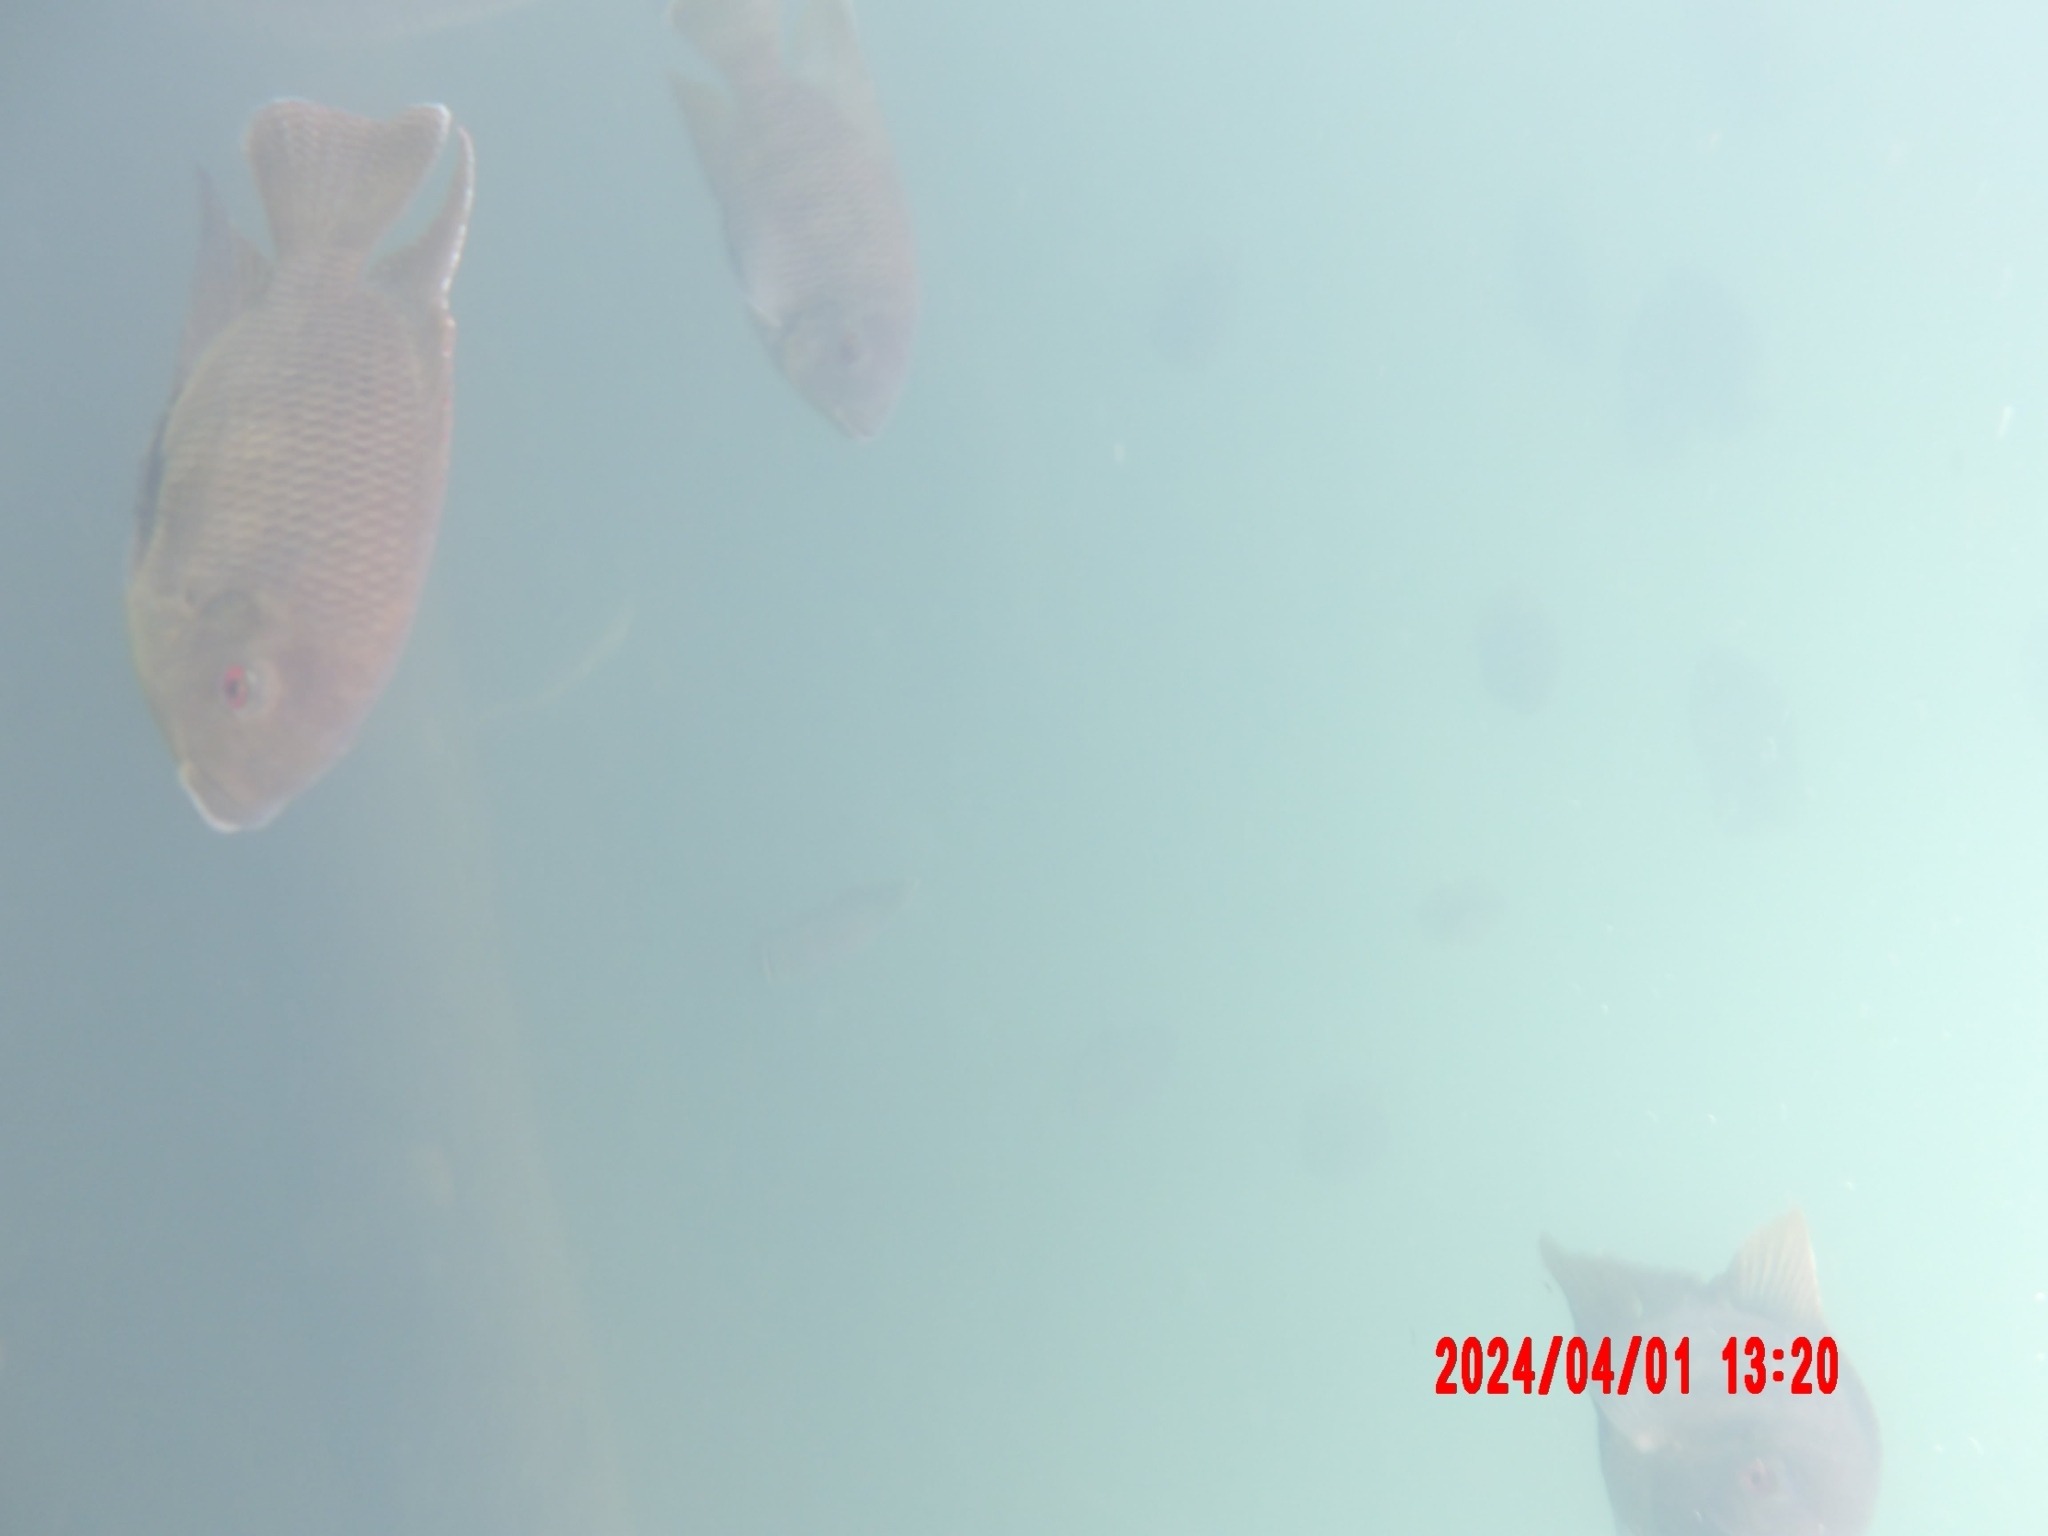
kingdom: Animalia
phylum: Chordata
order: Perciformes
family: Cichlidae
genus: Pelmatolapia
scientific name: Pelmatolapia mariae
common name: Spotted tilapia
